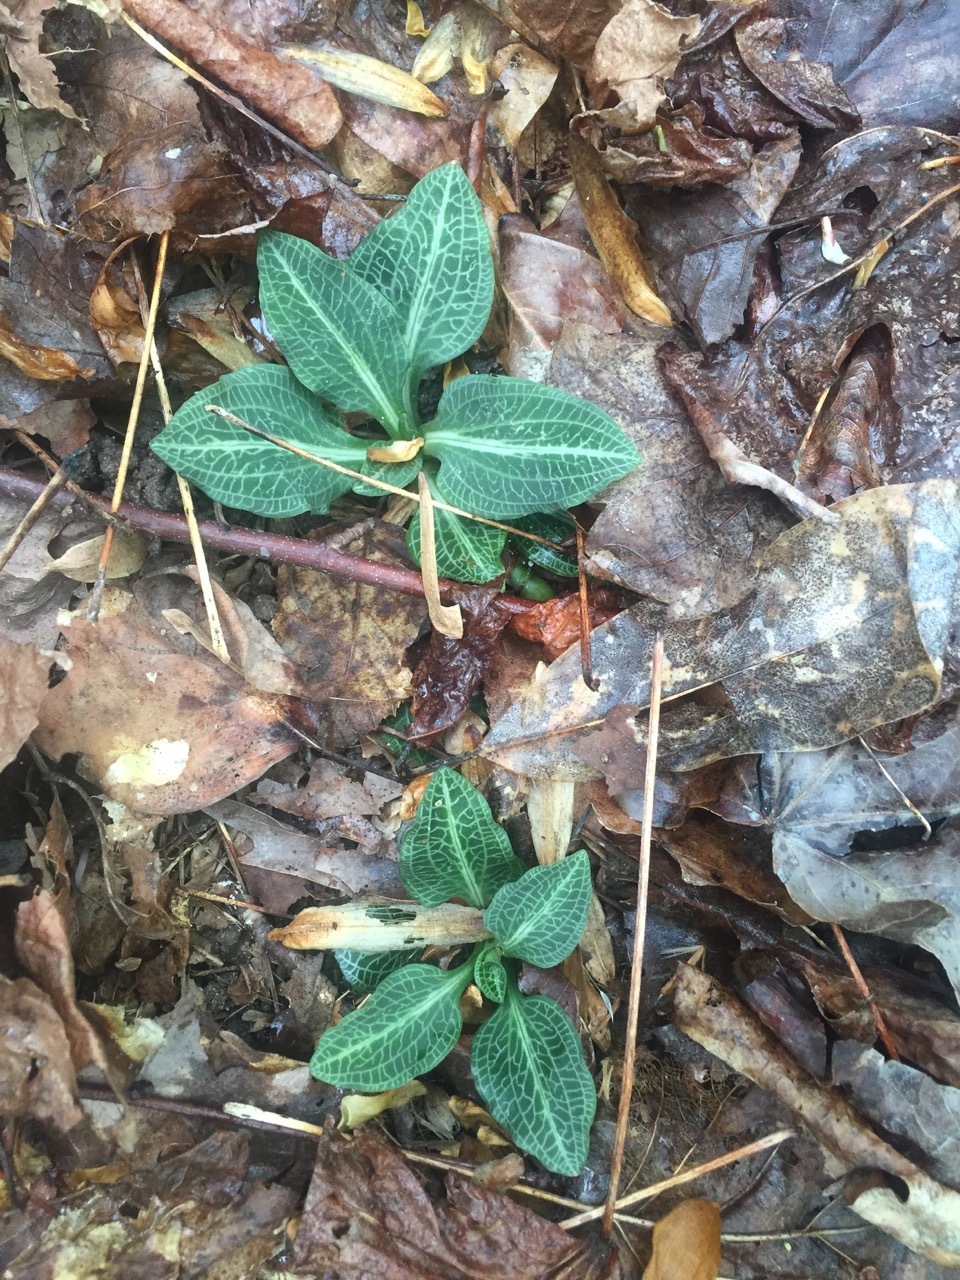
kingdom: Plantae
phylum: Tracheophyta
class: Liliopsida
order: Asparagales
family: Orchidaceae
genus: Goodyera
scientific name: Goodyera pubescens
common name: Downy rattlesnake-plantain
